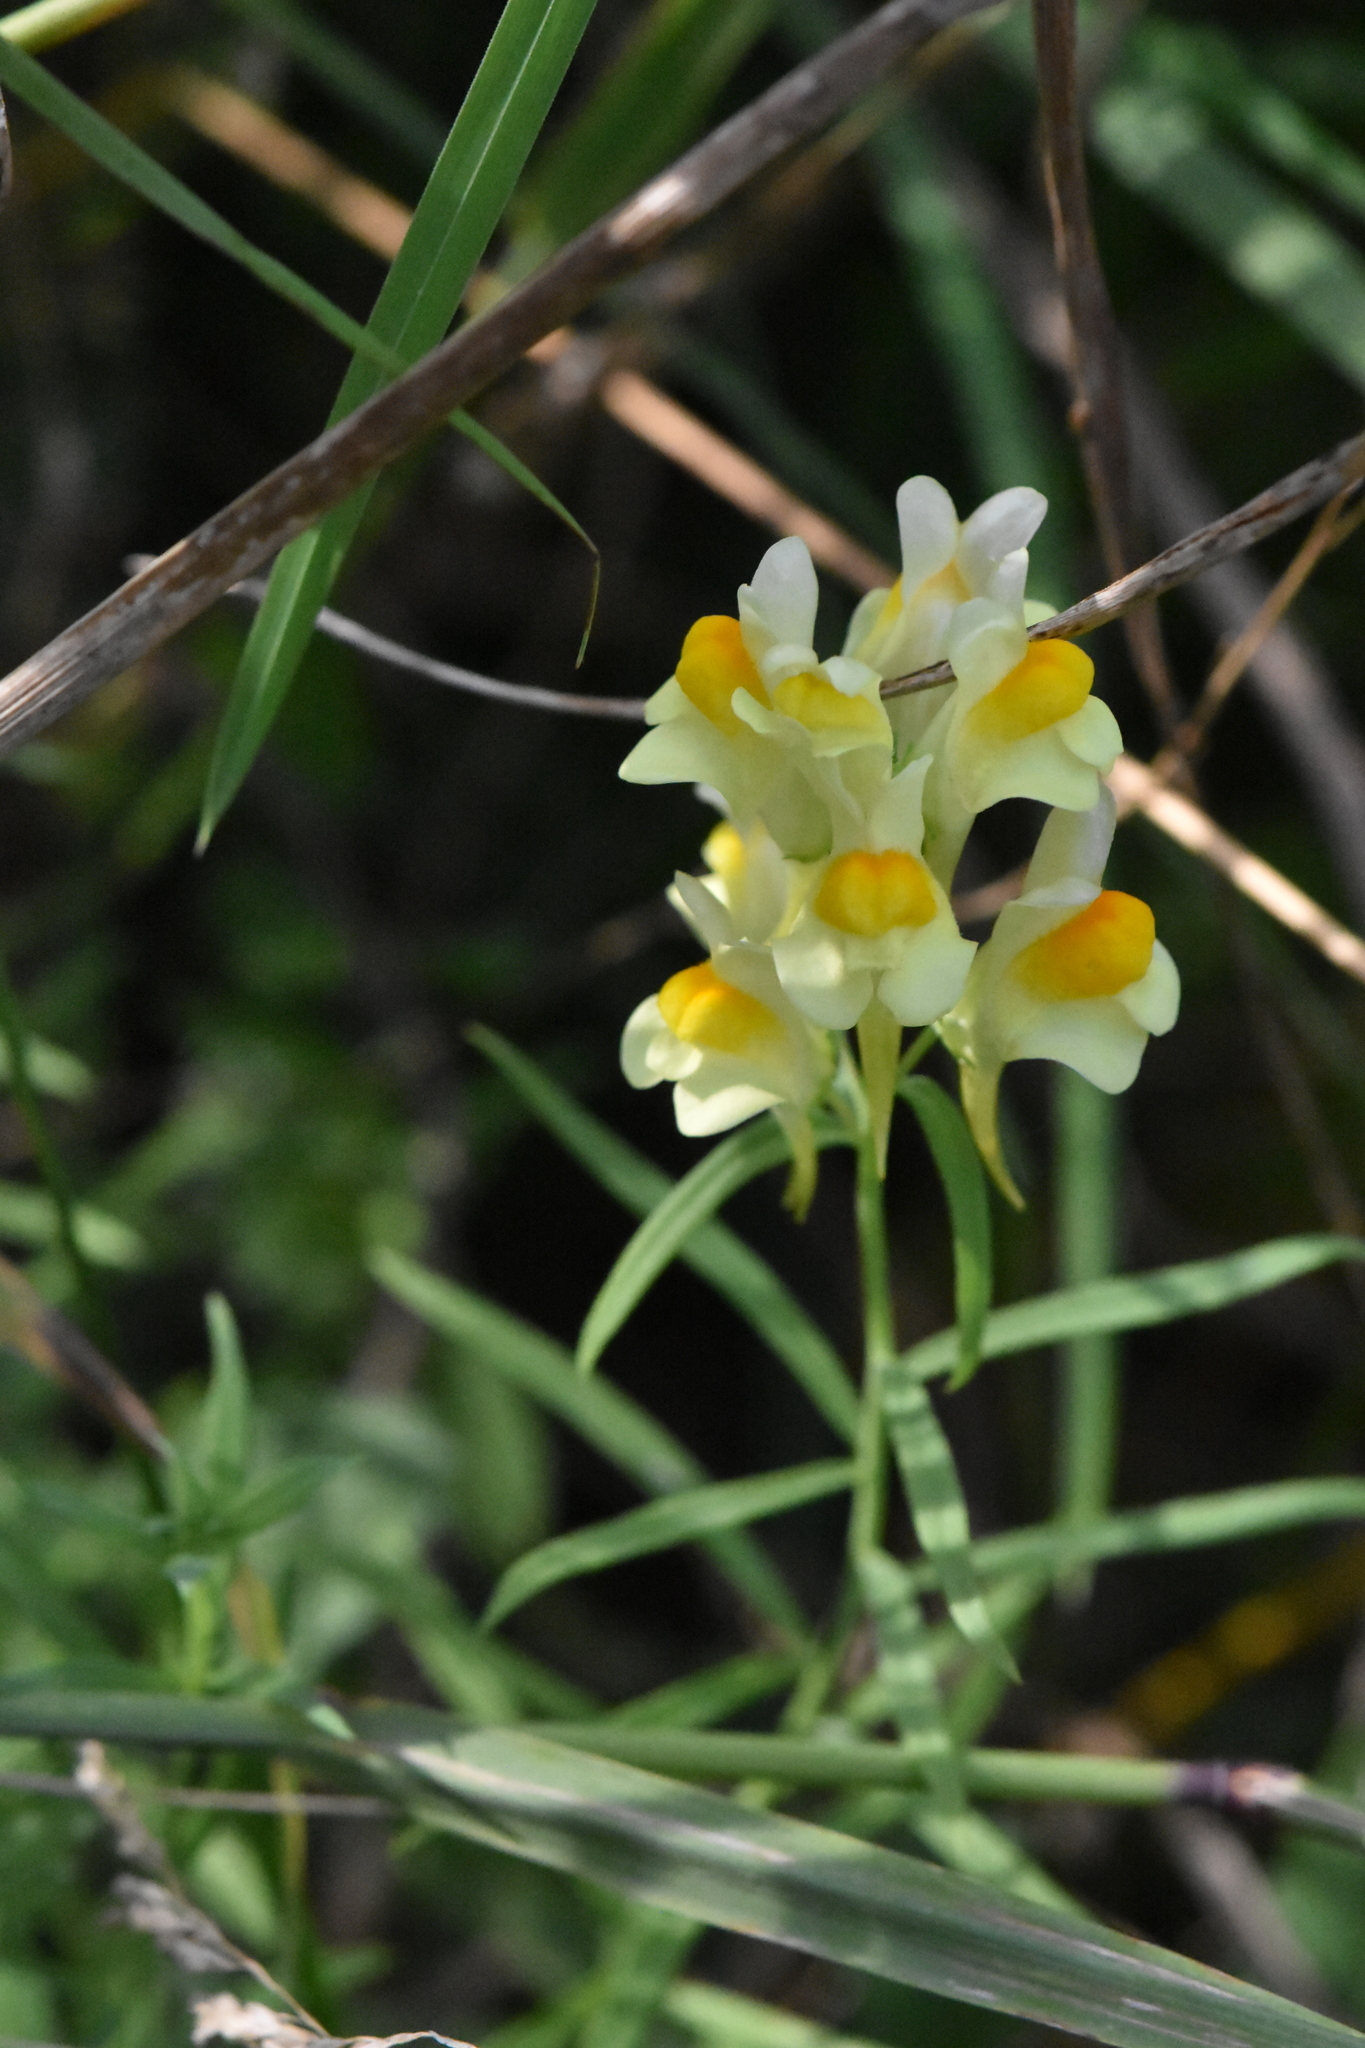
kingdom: Plantae
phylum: Tracheophyta
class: Magnoliopsida
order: Lamiales
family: Plantaginaceae
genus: Linaria
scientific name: Linaria vulgaris
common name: Butter and eggs
